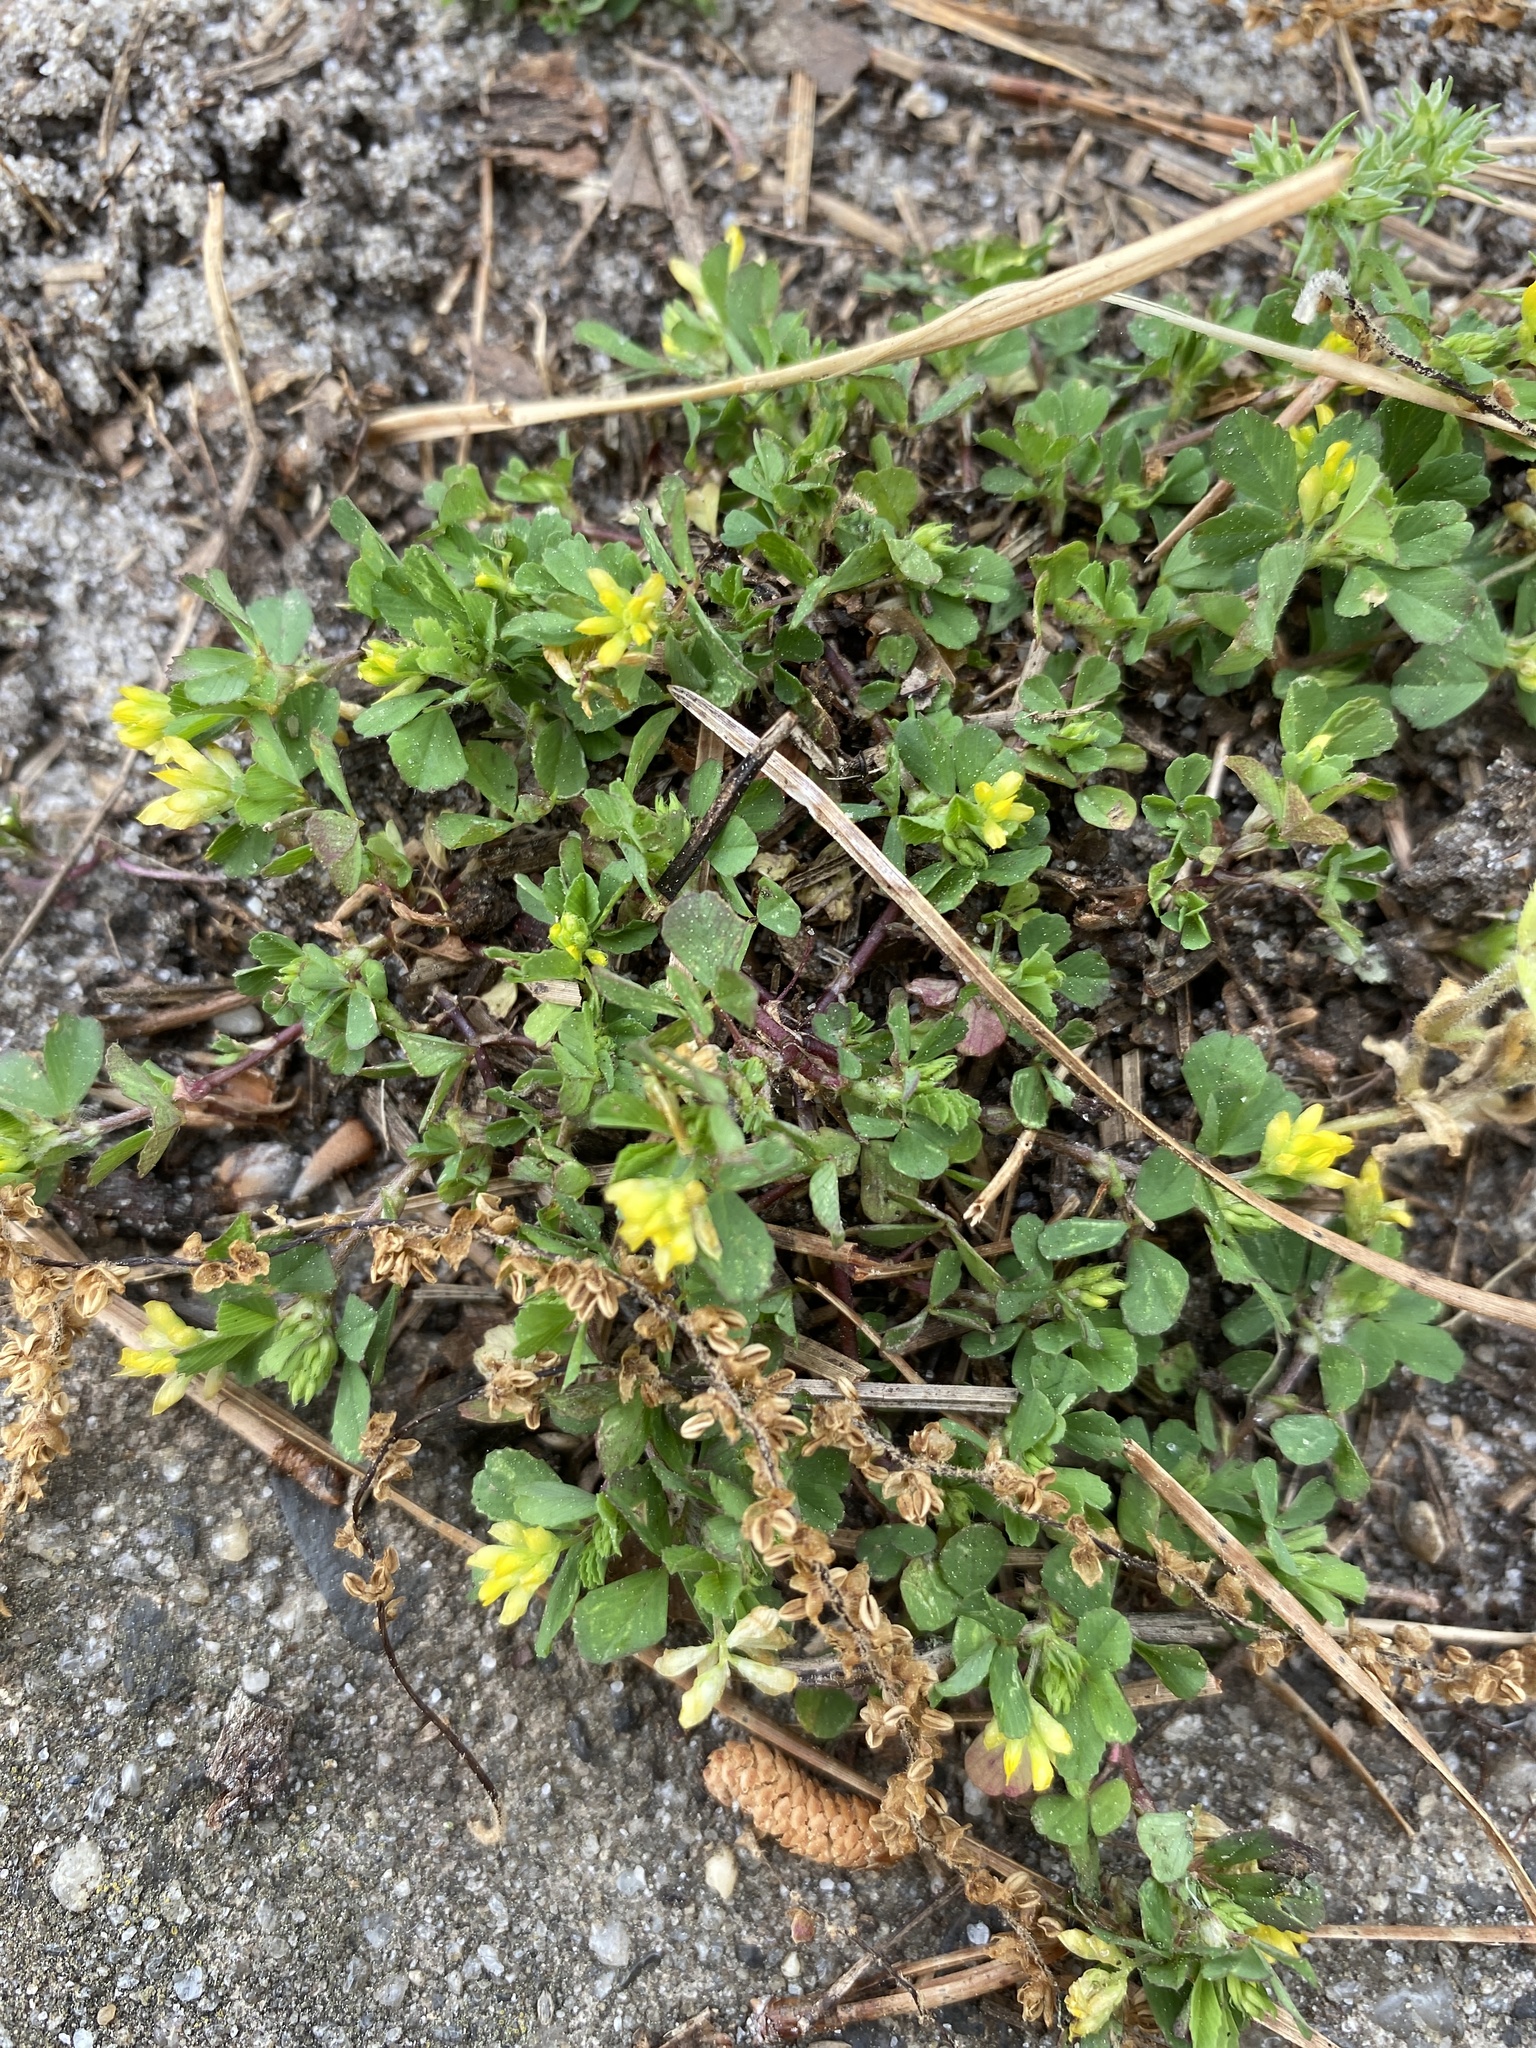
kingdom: Plantae
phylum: Tracheophyta
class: Magnoliopsida
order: Fabales
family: Fabaceae
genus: Trifolium
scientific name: Trifolium dubium
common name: Suckling clover
